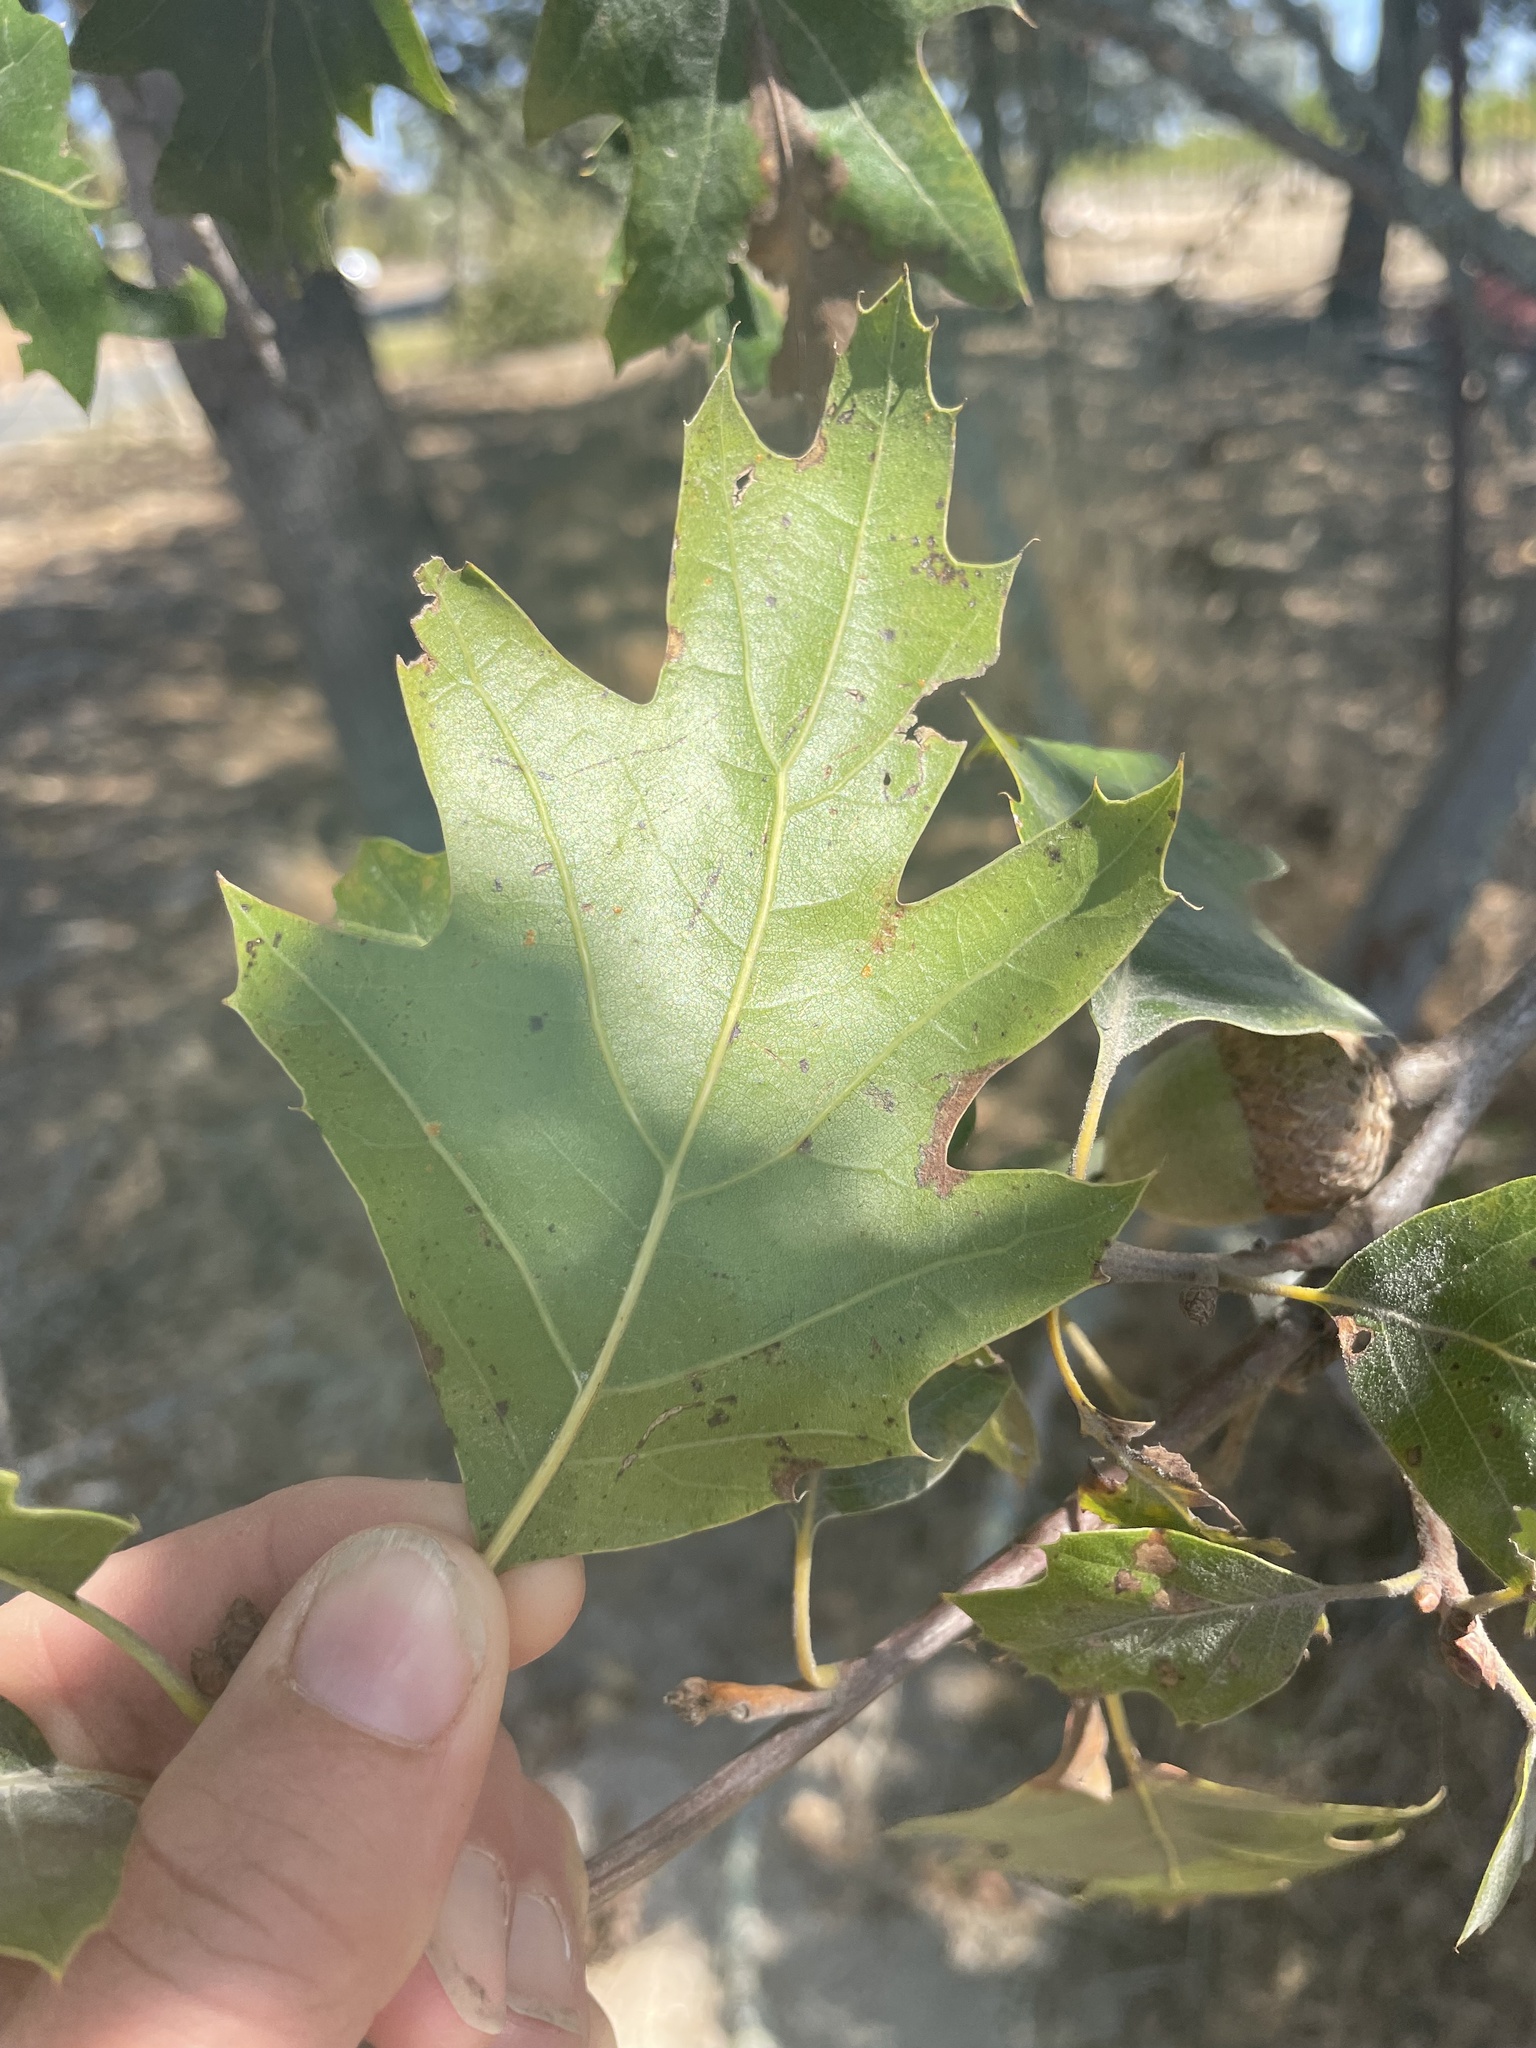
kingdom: Plantae
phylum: Tracheophyta
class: Magnoliopsida
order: Fagales
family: Fagaceae
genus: Quercus
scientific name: Quercus kelloggii
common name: California black oak
